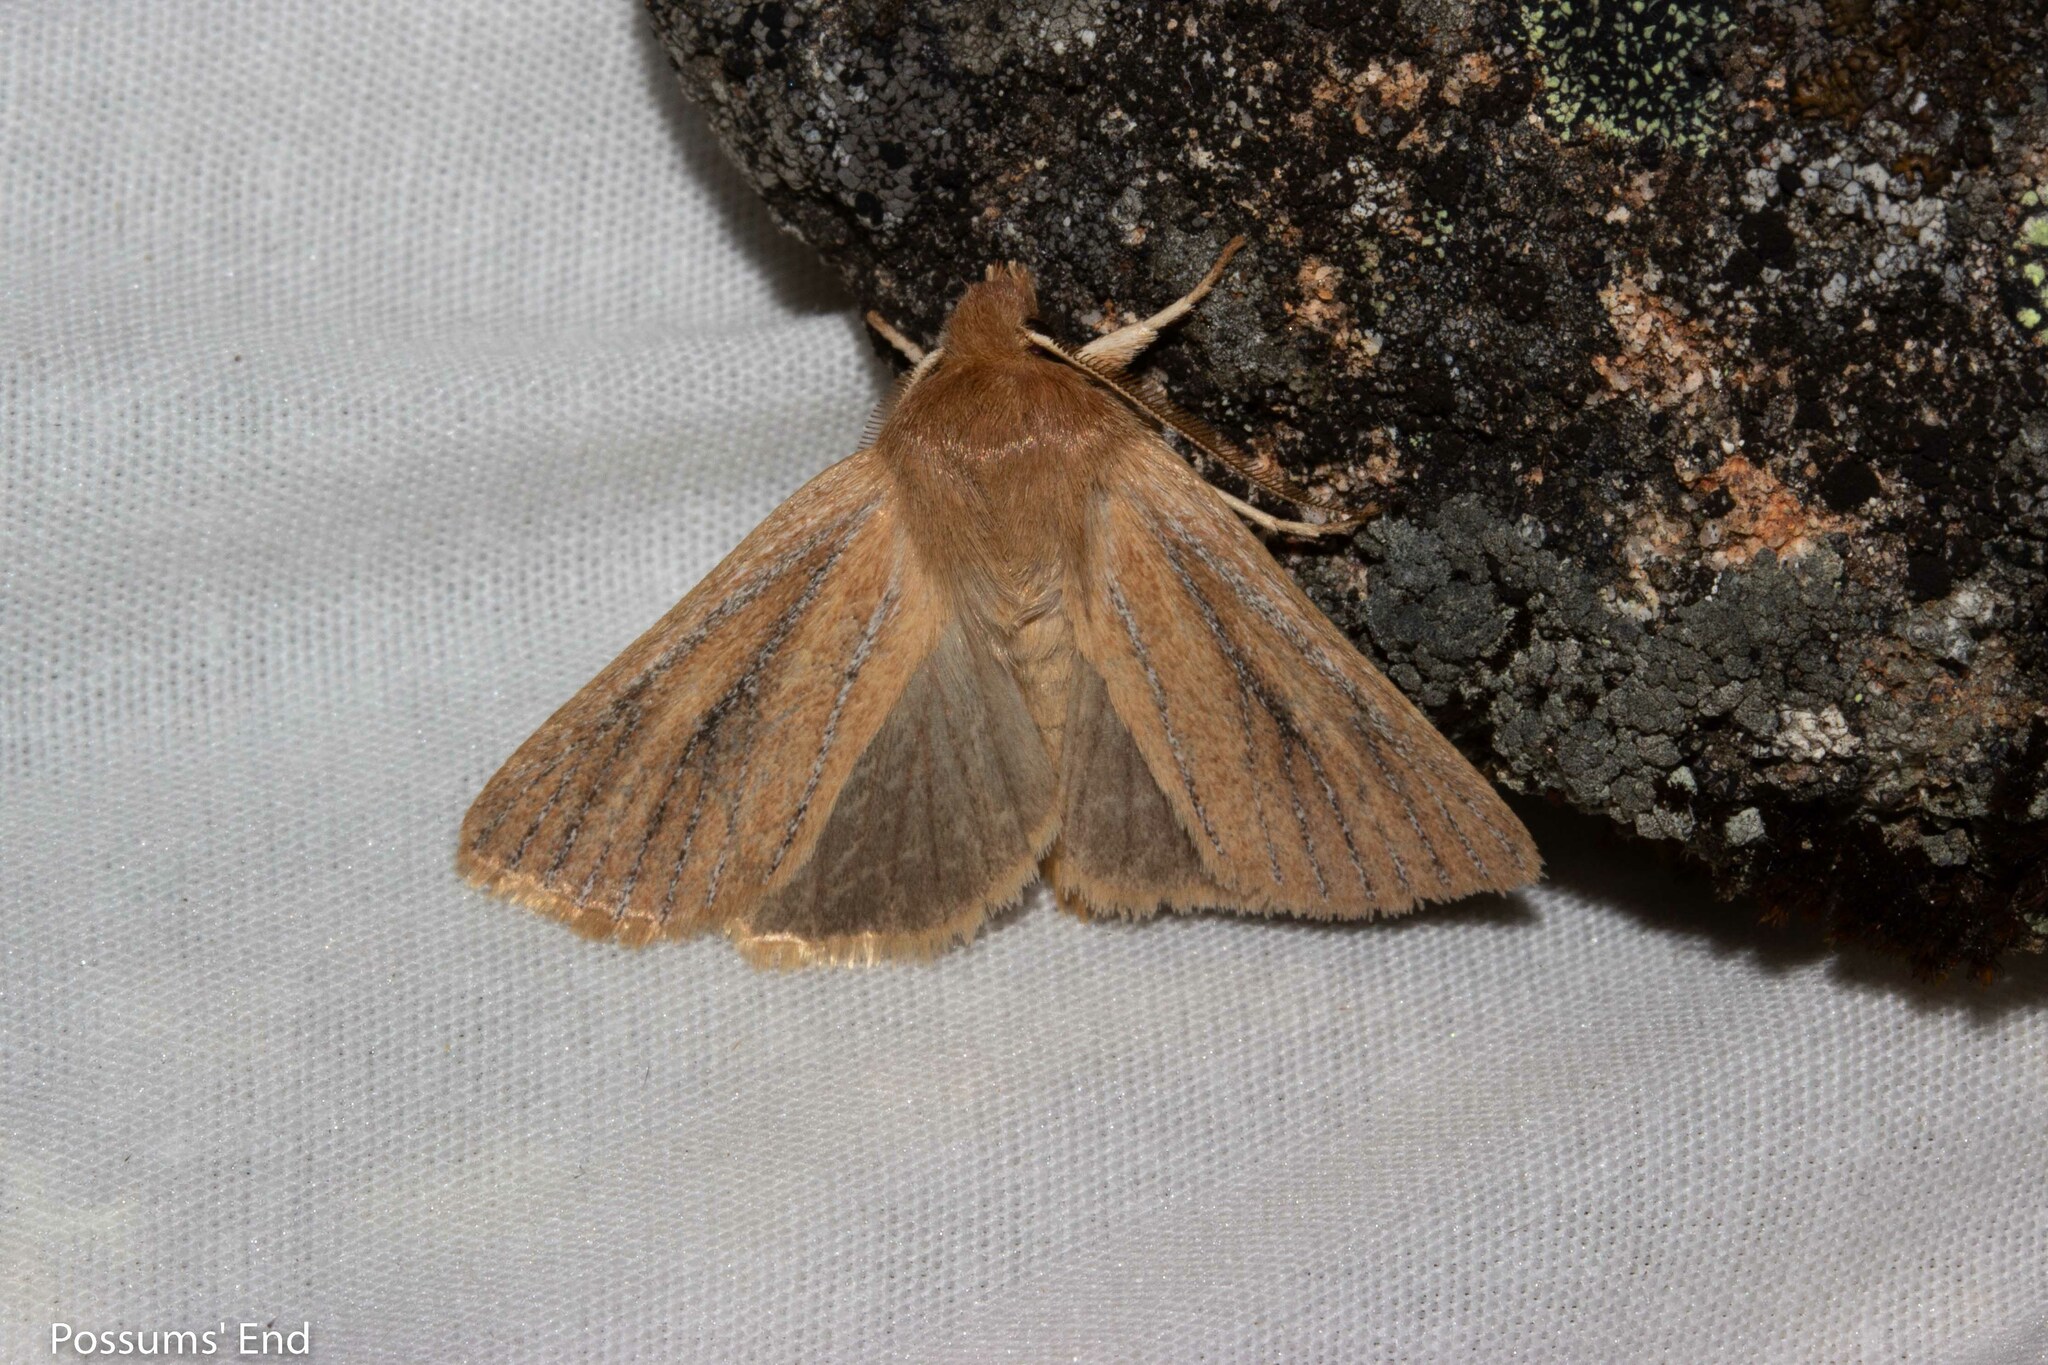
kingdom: Animalia
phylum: Arthropoda
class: Insecta
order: Lepidoptera
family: Noctuidae
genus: Ichneutica
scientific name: Ichneutica
